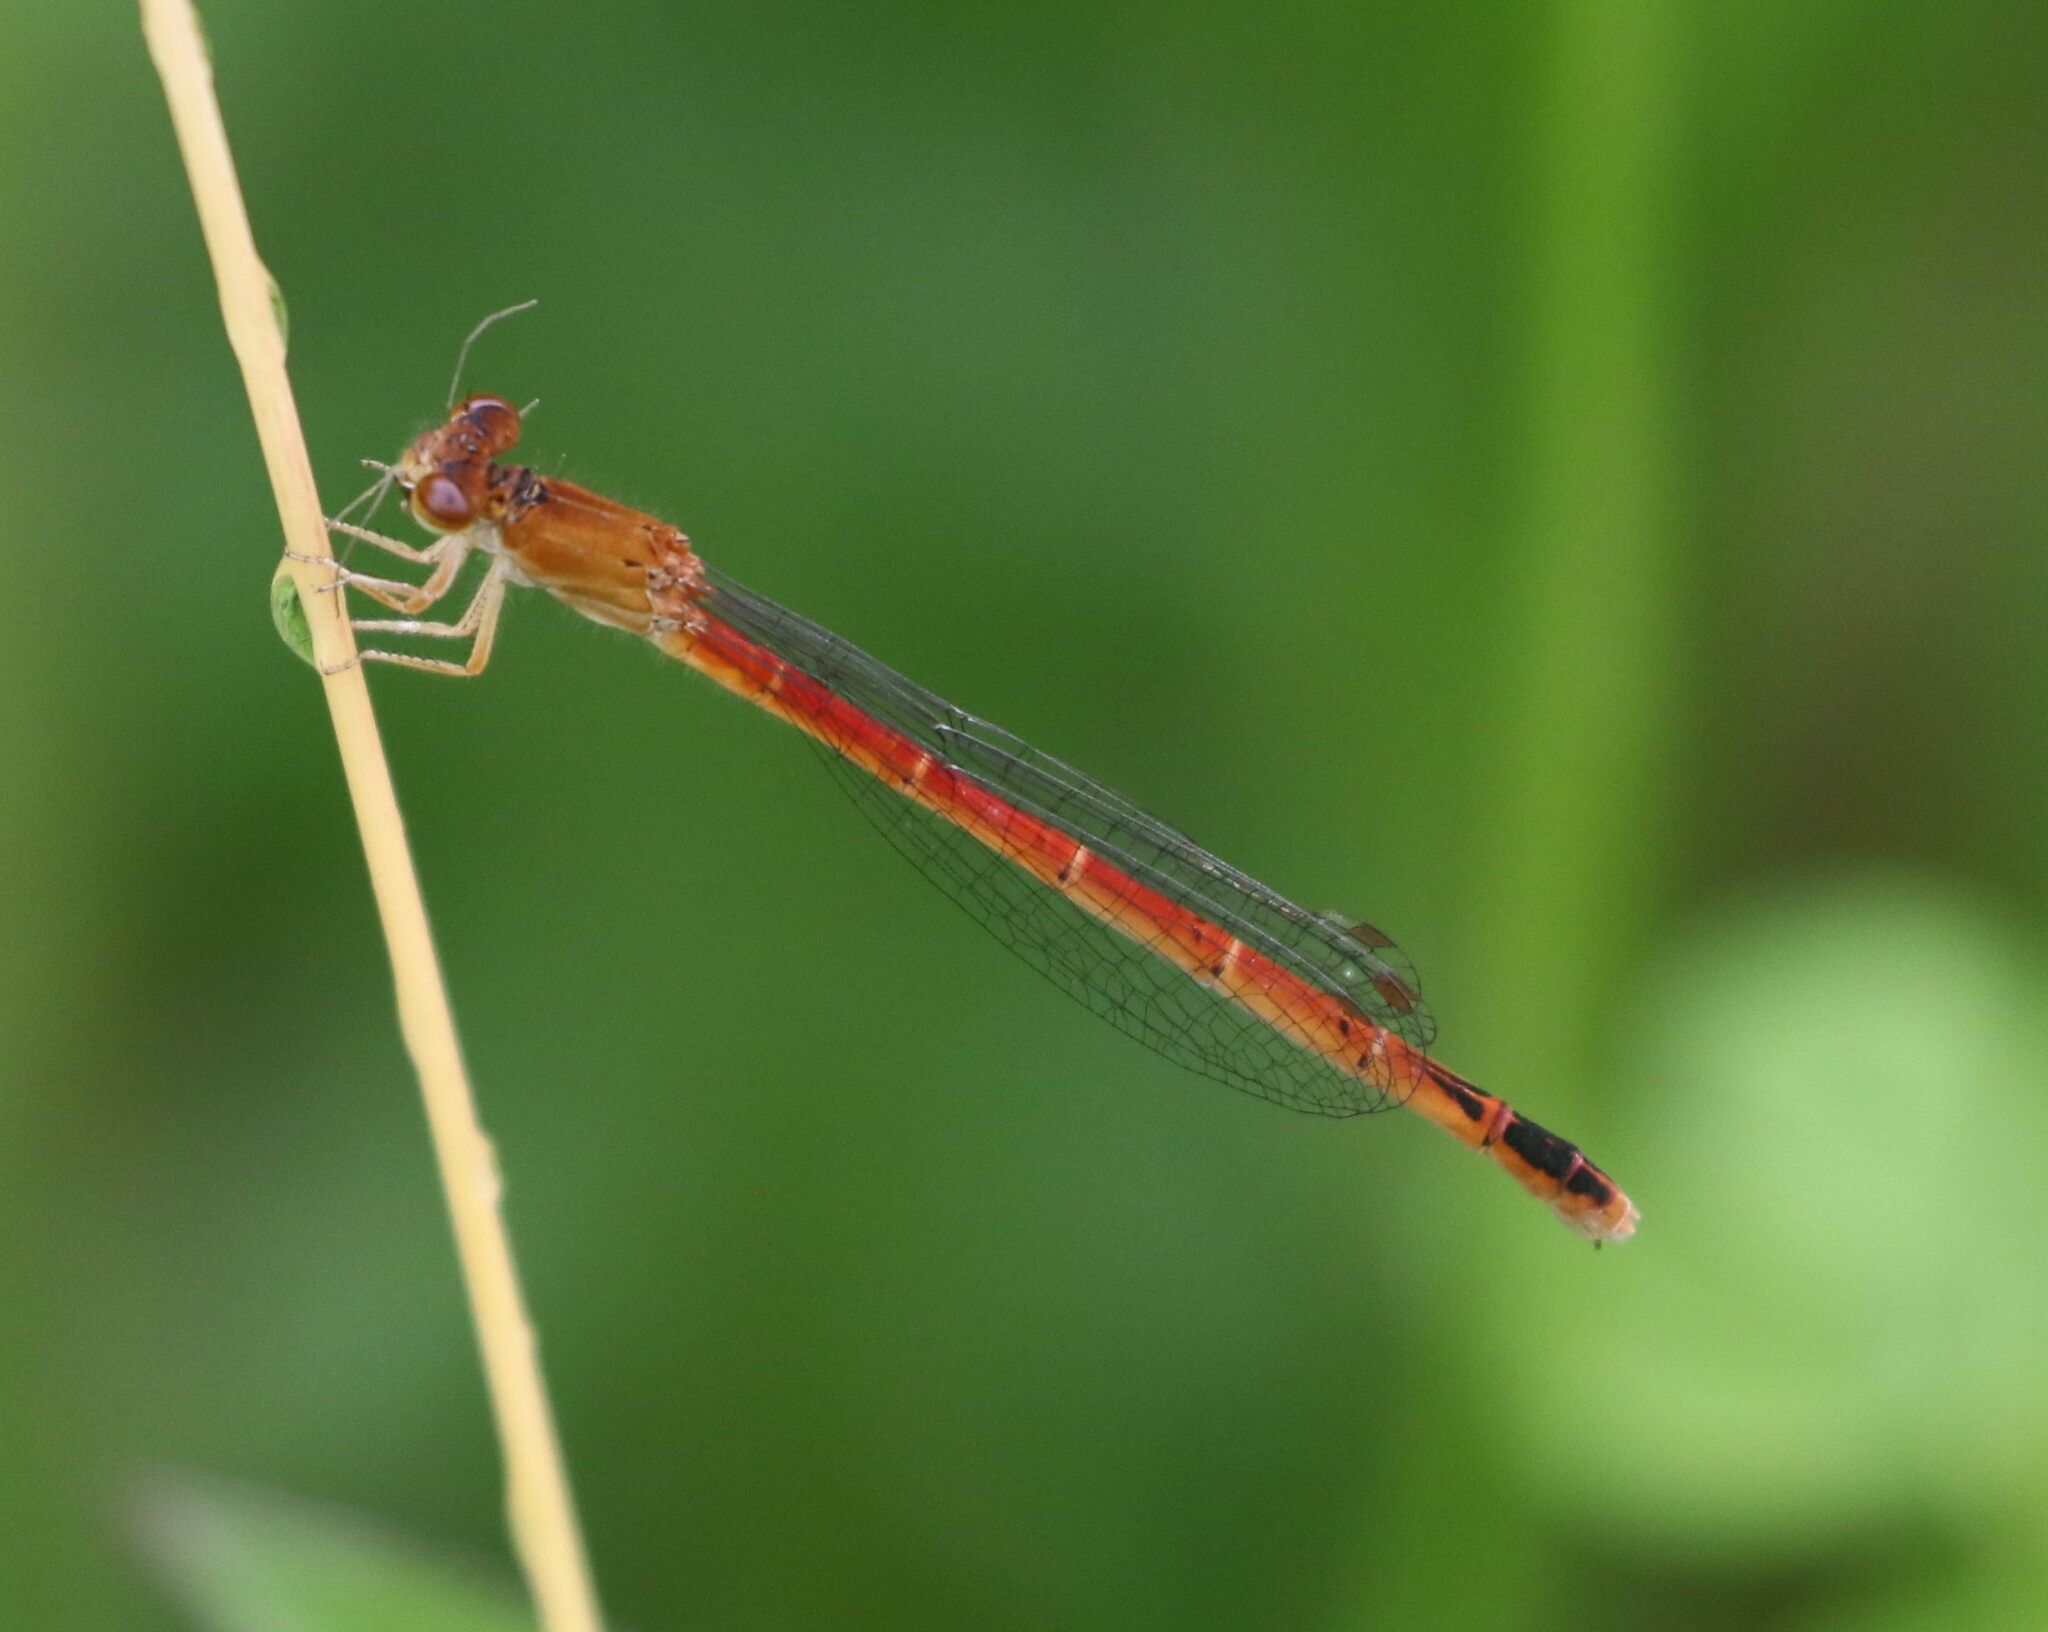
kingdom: Animalia
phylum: Arthropoda
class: Insecta
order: Odonata
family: Coenagrionidae
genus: Amphiagrion
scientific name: Amphiagrion saucium
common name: Eastern red damsel
